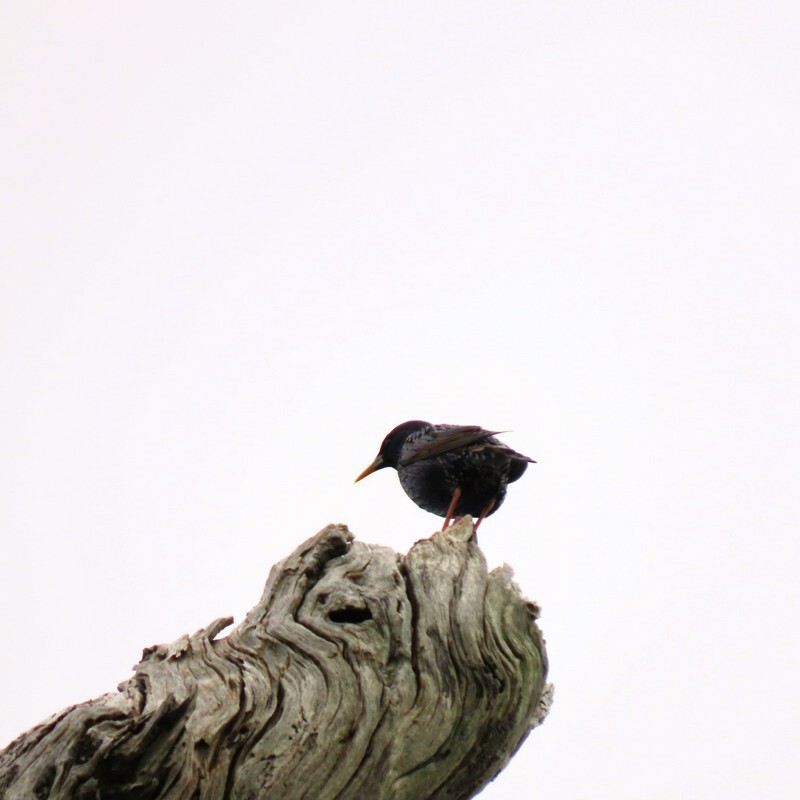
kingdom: Animalia
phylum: Chordata
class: Aves
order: Passeriformes
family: Sturnidae
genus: Sturnus
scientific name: Sturnus vulgaris
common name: Common starling
